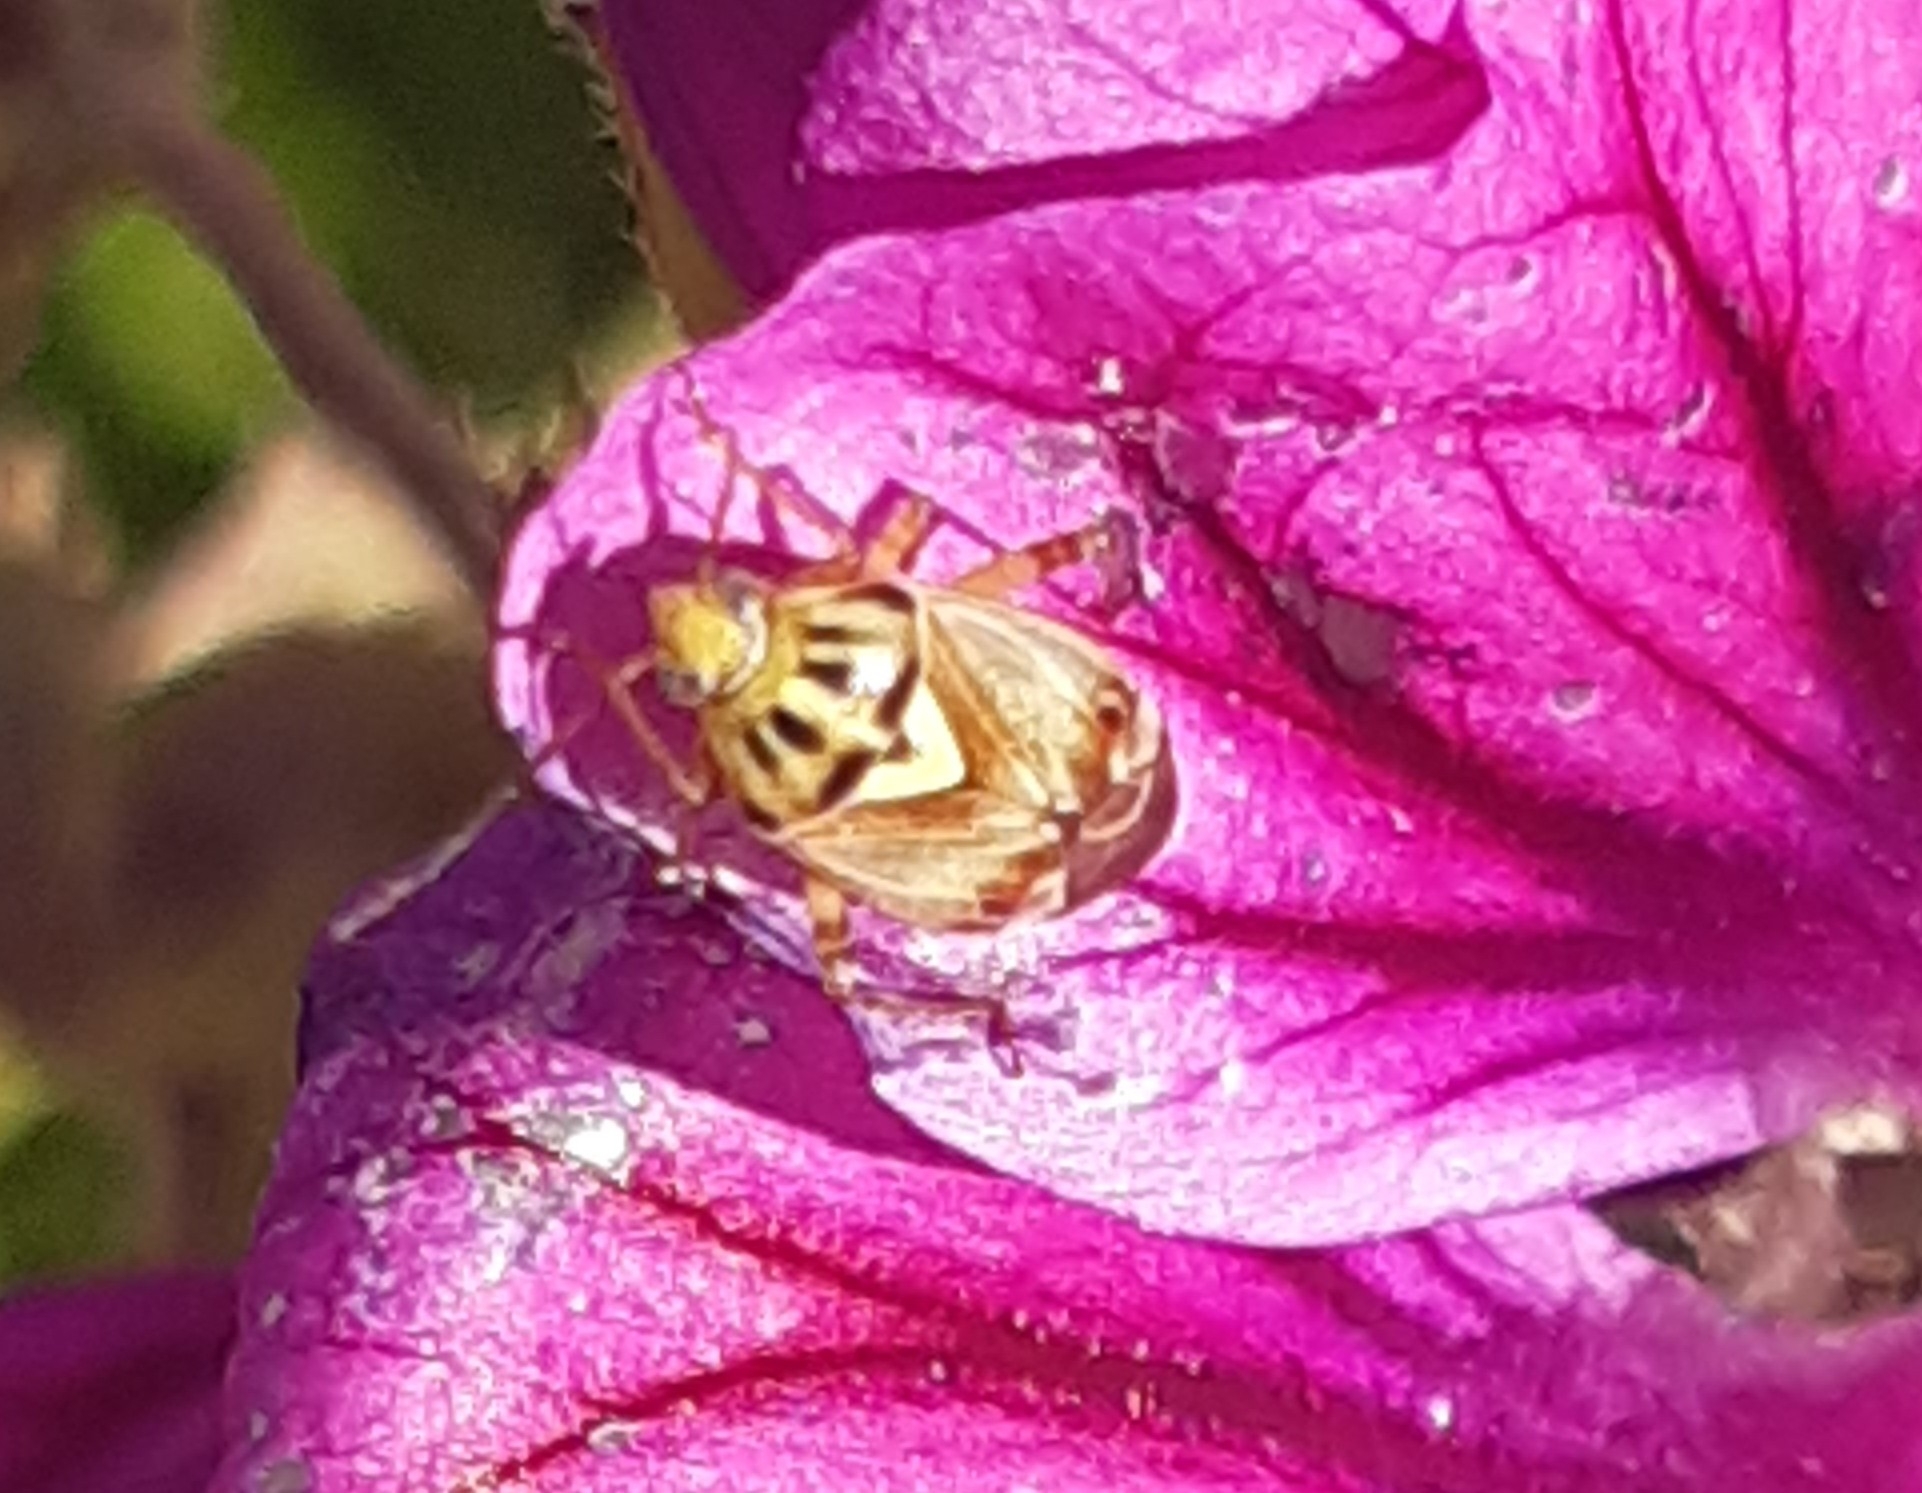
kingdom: Animalia
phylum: Arthropoda
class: Insecta
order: Hemiptera
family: Miridae
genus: Lygus
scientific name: Lygus pratensis
